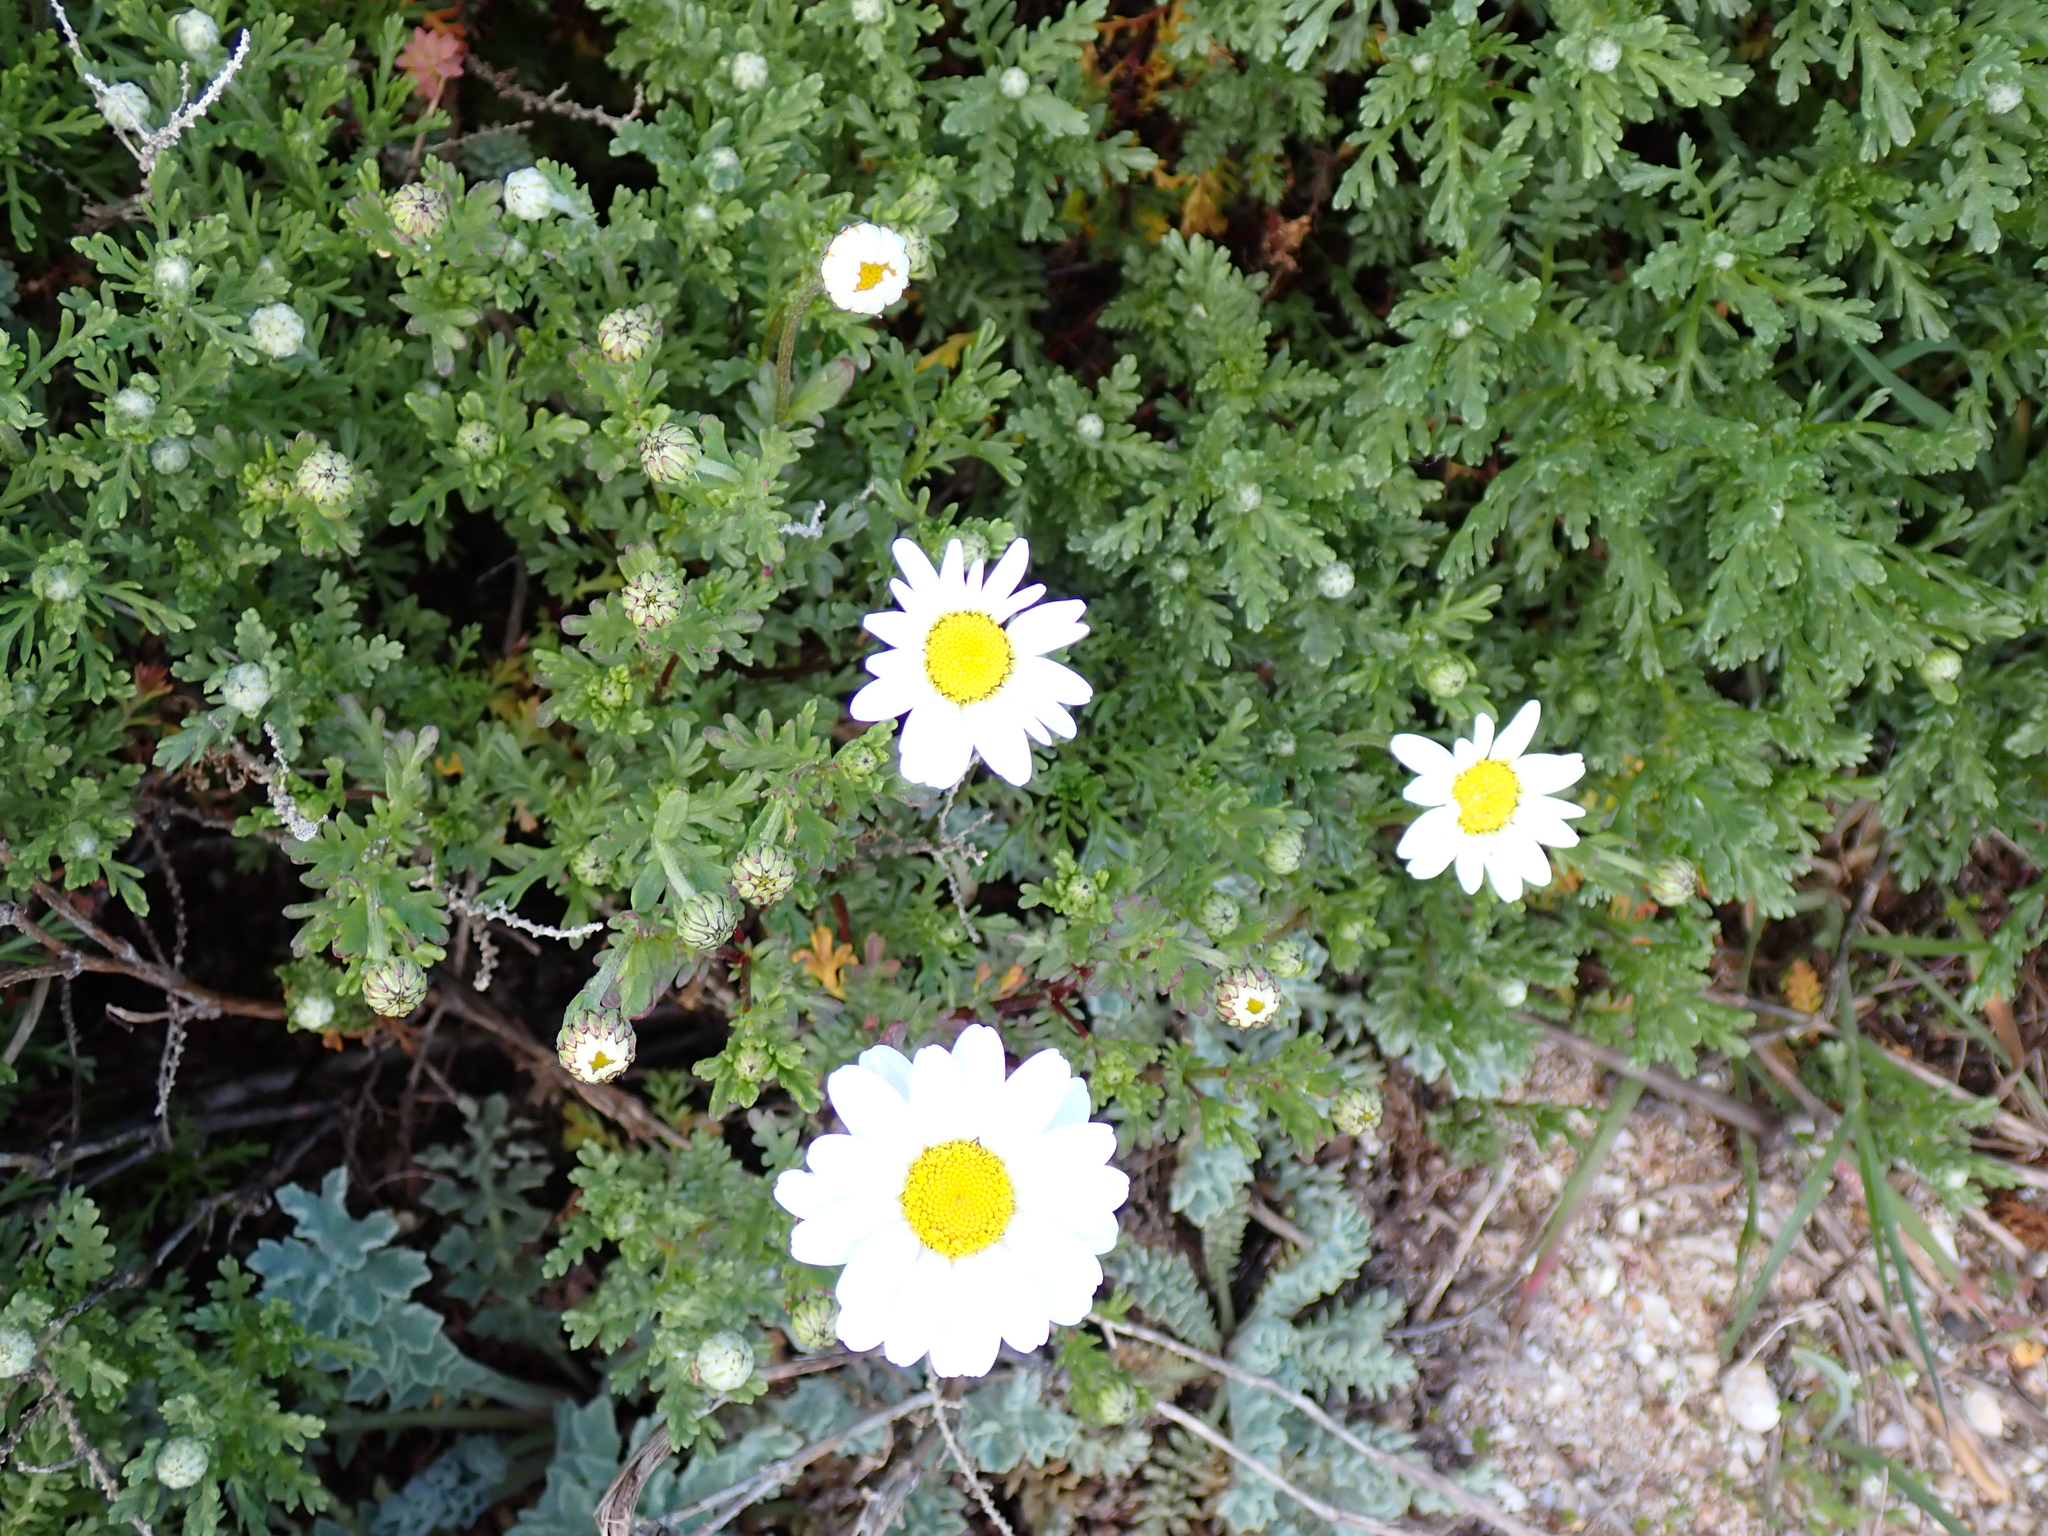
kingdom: Plantae
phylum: Tracheophyta
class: Magnoliopsida
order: Asterales
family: Asteraceae
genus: Anthemis
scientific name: Anthemis maritima
